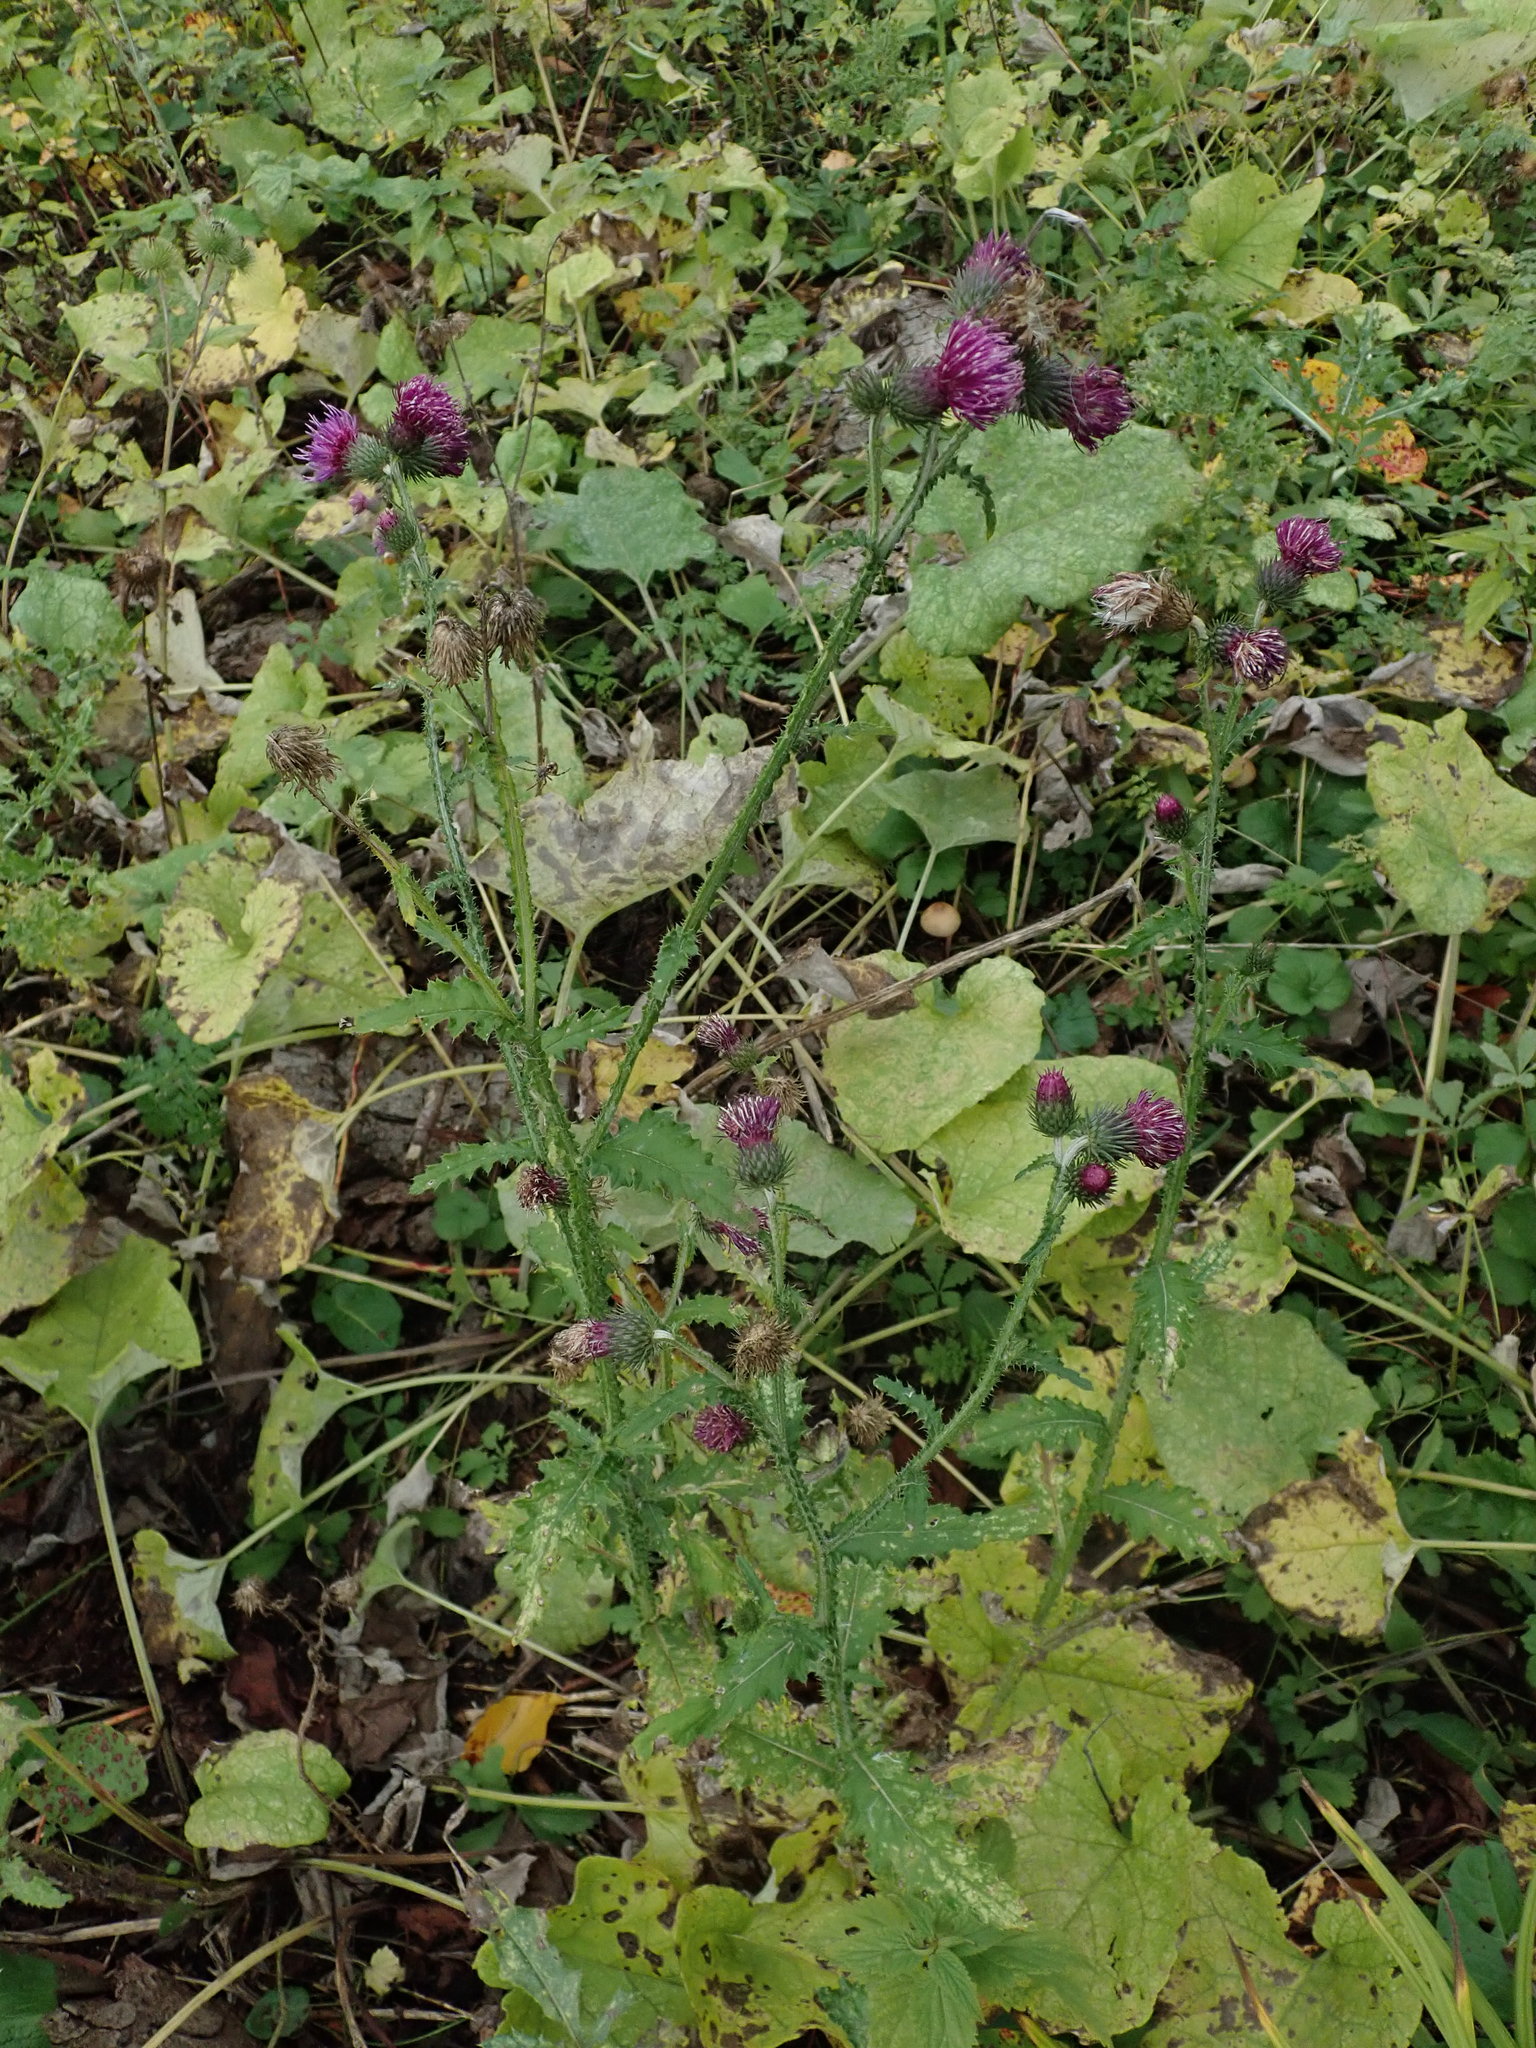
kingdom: Plantae
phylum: Tracheophyta
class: Magnoliopsida
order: Asterales
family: Asteraceae
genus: Carduus
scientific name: Carduus crispus
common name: Welted thistle
